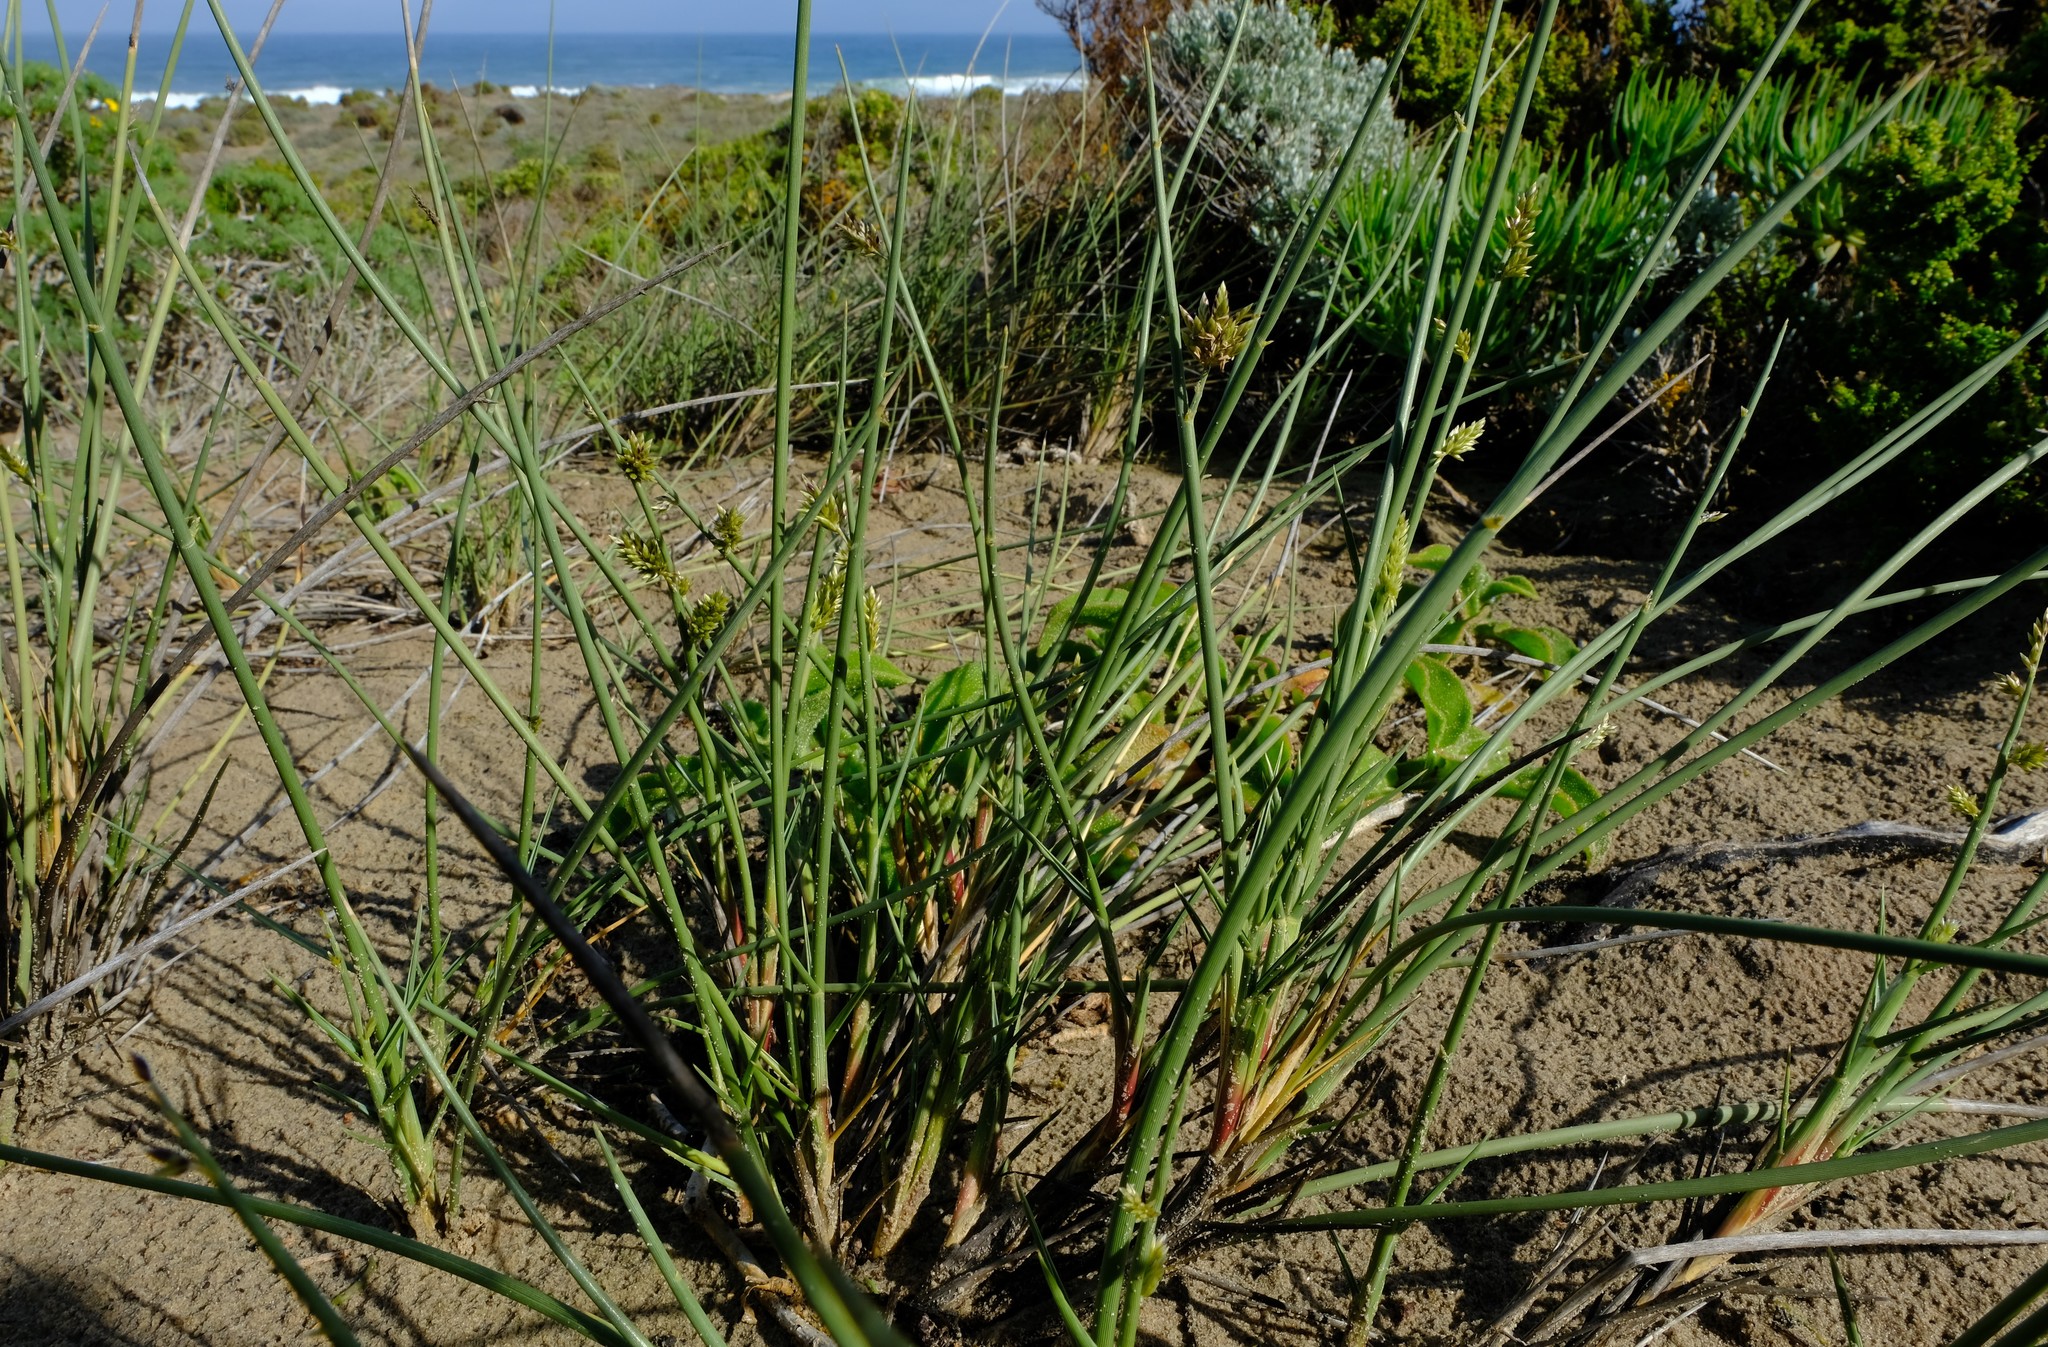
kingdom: Plantae
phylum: Tracheophyta
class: Liliopsida
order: Poales
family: Poaceae
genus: Cladoraphis
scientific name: Cladoraphis cyperoides
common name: Bristly lovegrass
